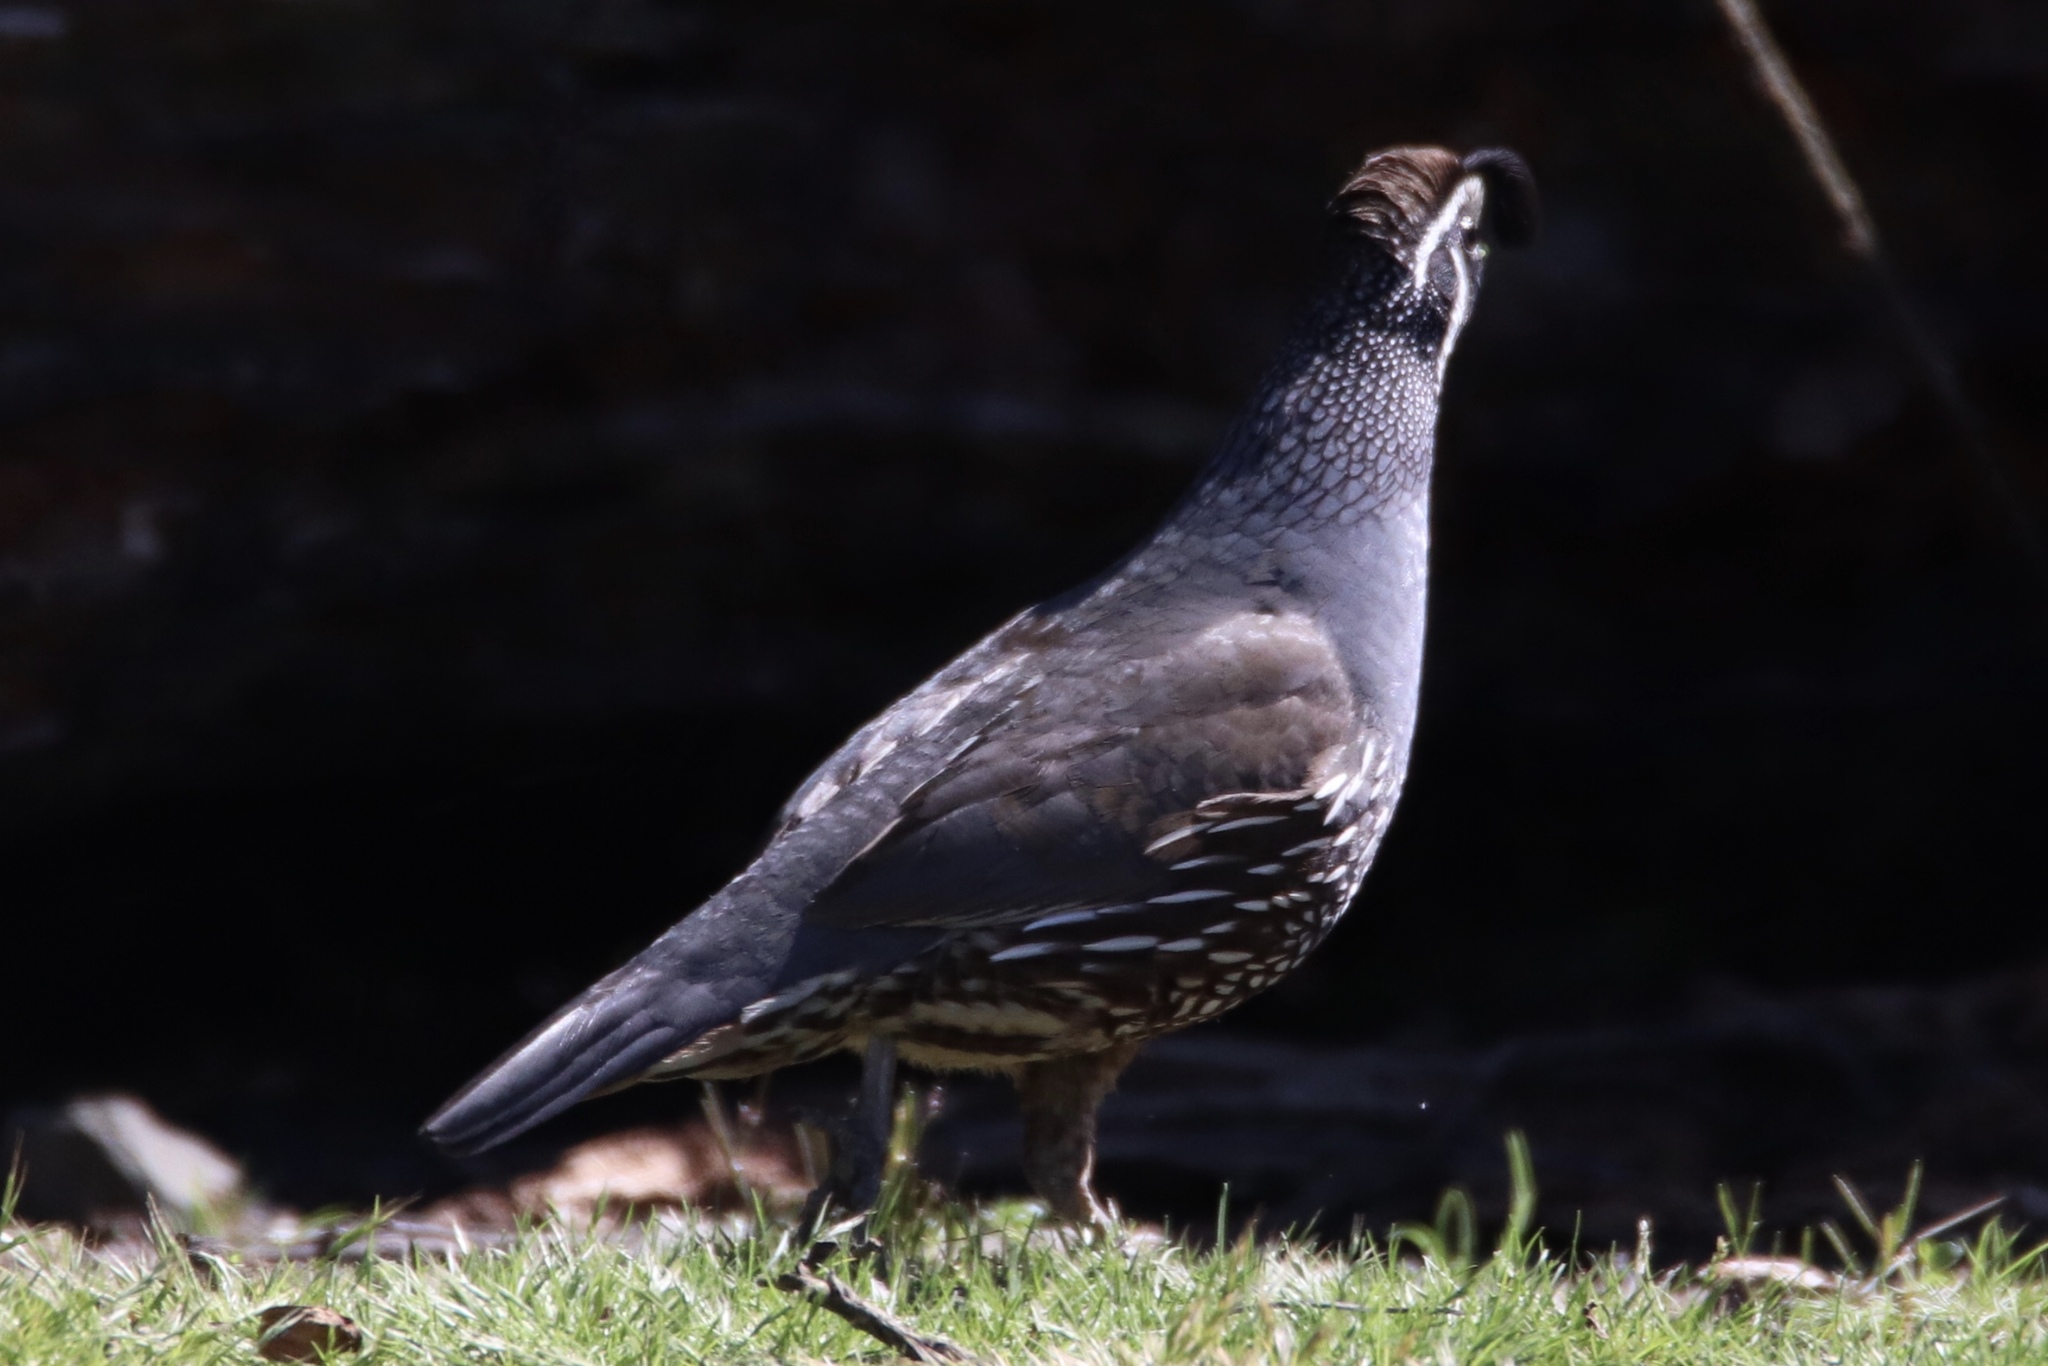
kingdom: Animalia
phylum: Chordata
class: Aves
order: Galliformes
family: Odontophoridae
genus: Callipepla
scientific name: Callipepla californica
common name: California quail
